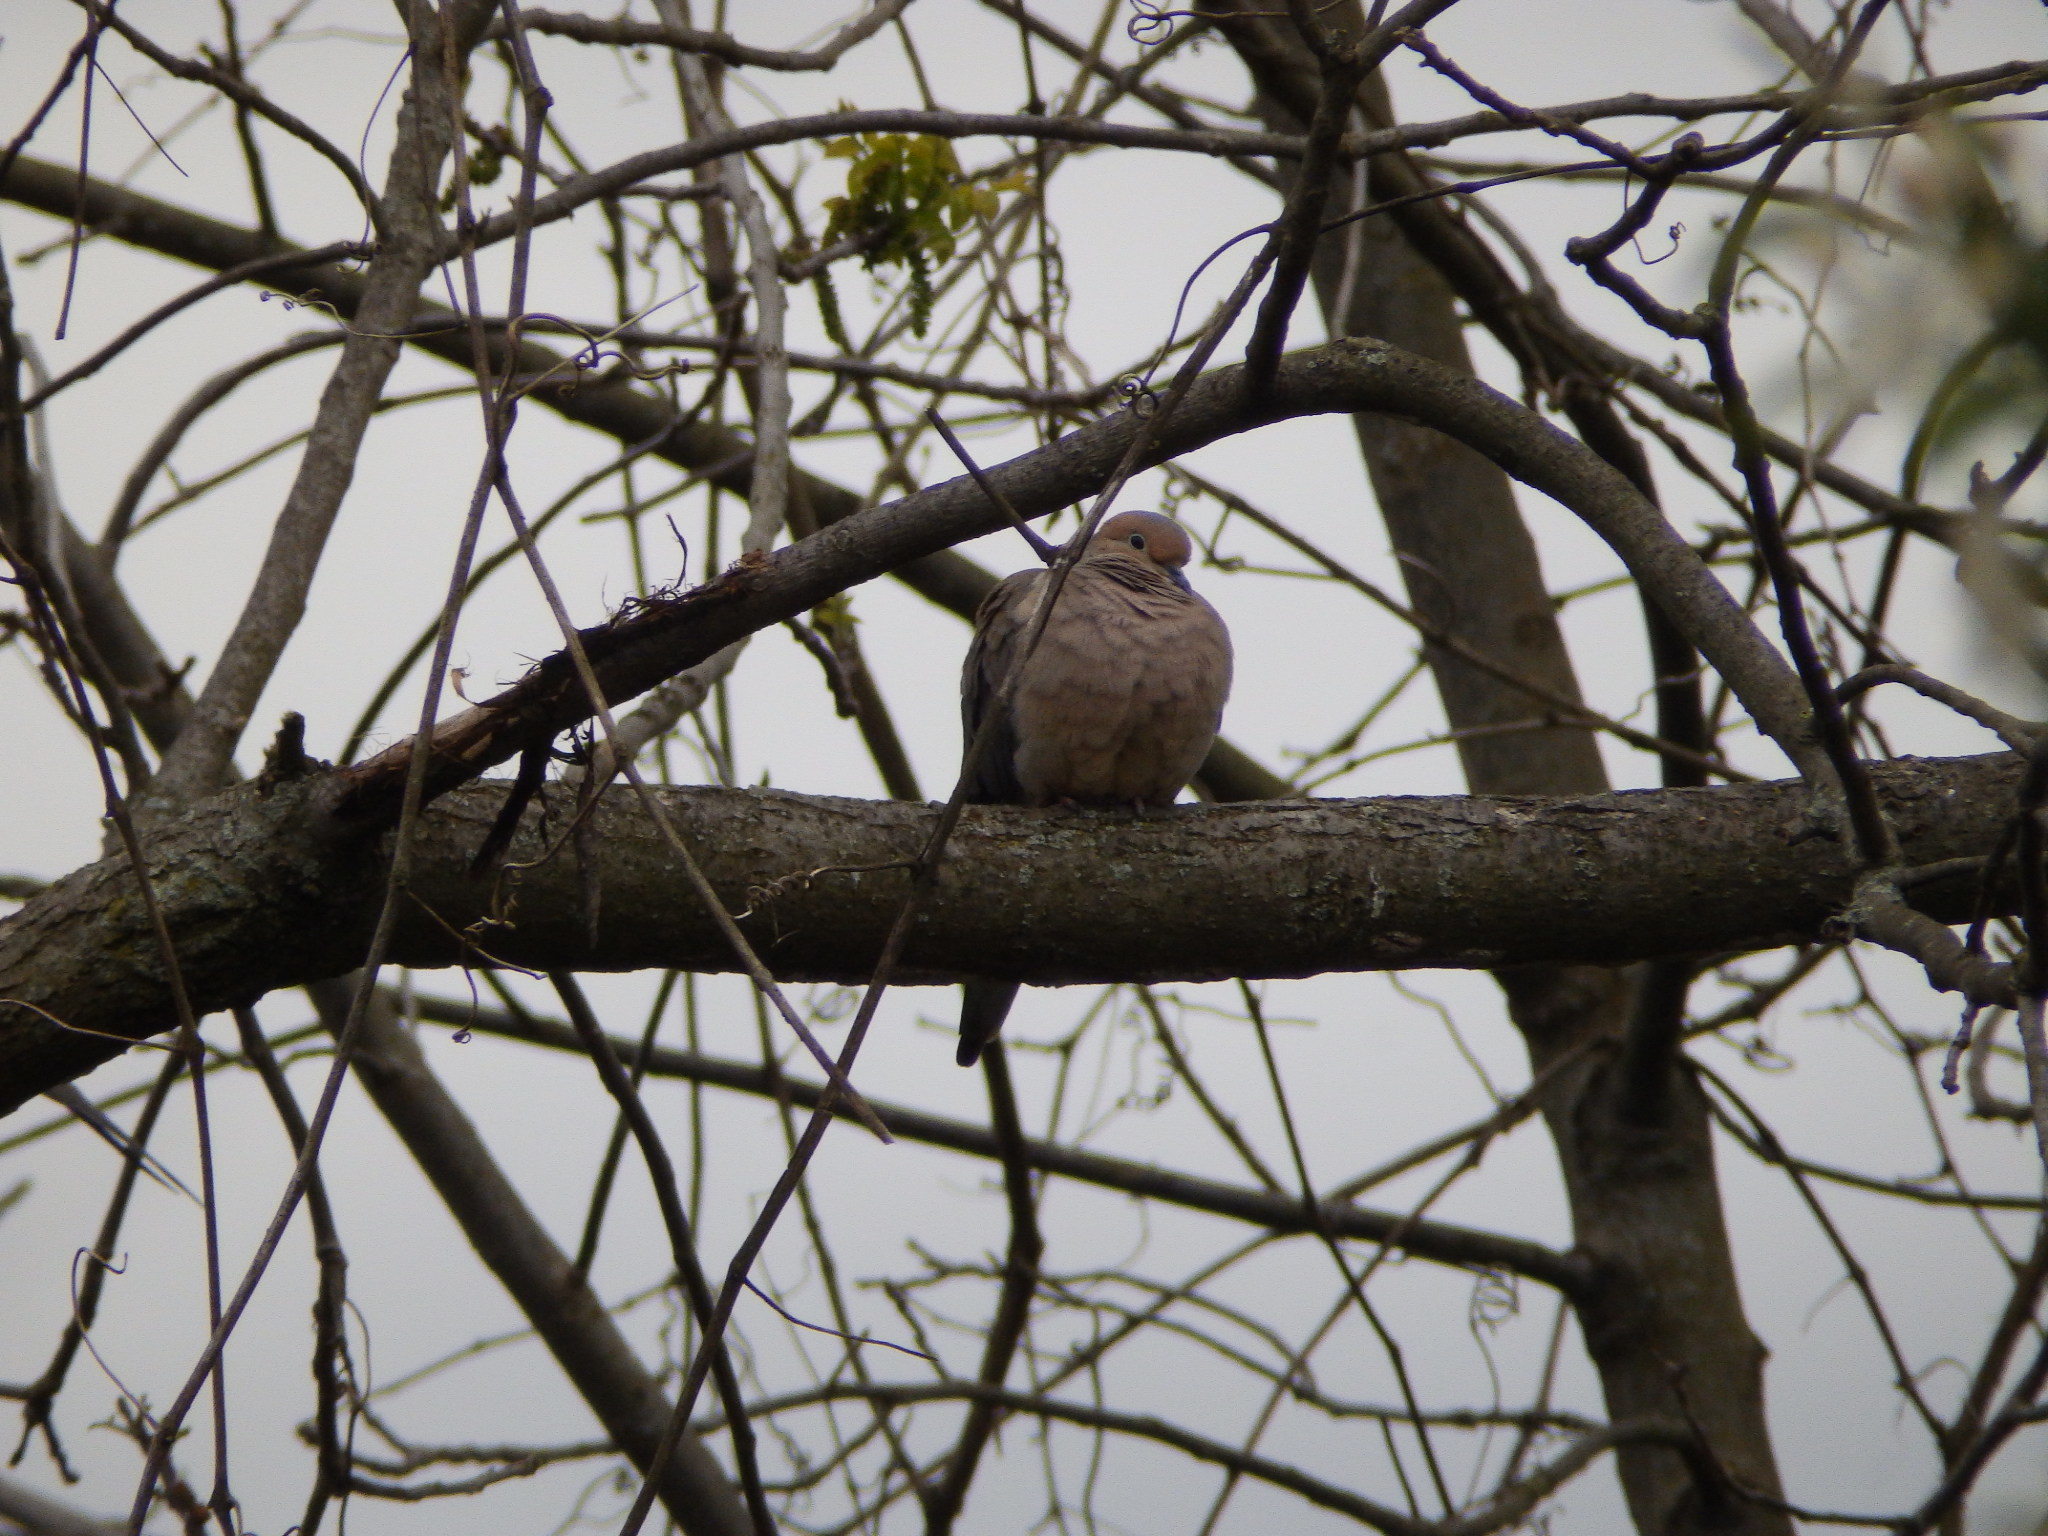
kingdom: Animalia
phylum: Chordata
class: Aves
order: Columbiformes
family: Columbidae
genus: Zenaida
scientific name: Zenaida macroura
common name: Mourning dove
